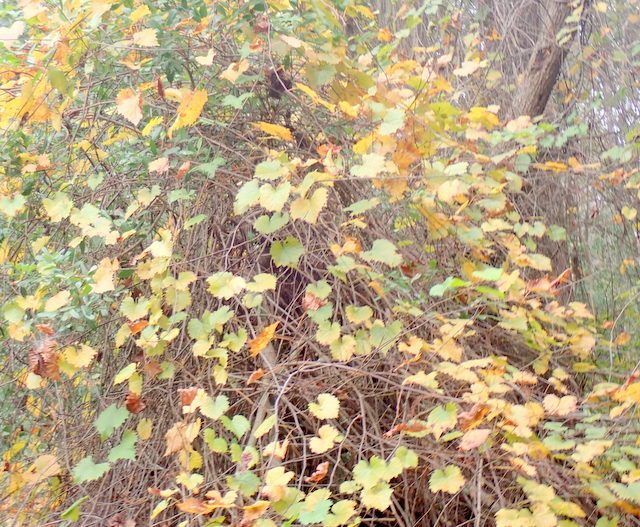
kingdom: Plantae
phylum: Tracheophyta
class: Magnoliopsida
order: Vitales
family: Vitaceae
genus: Vitis
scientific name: Vitis rotundifolia
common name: Muscadine grape
